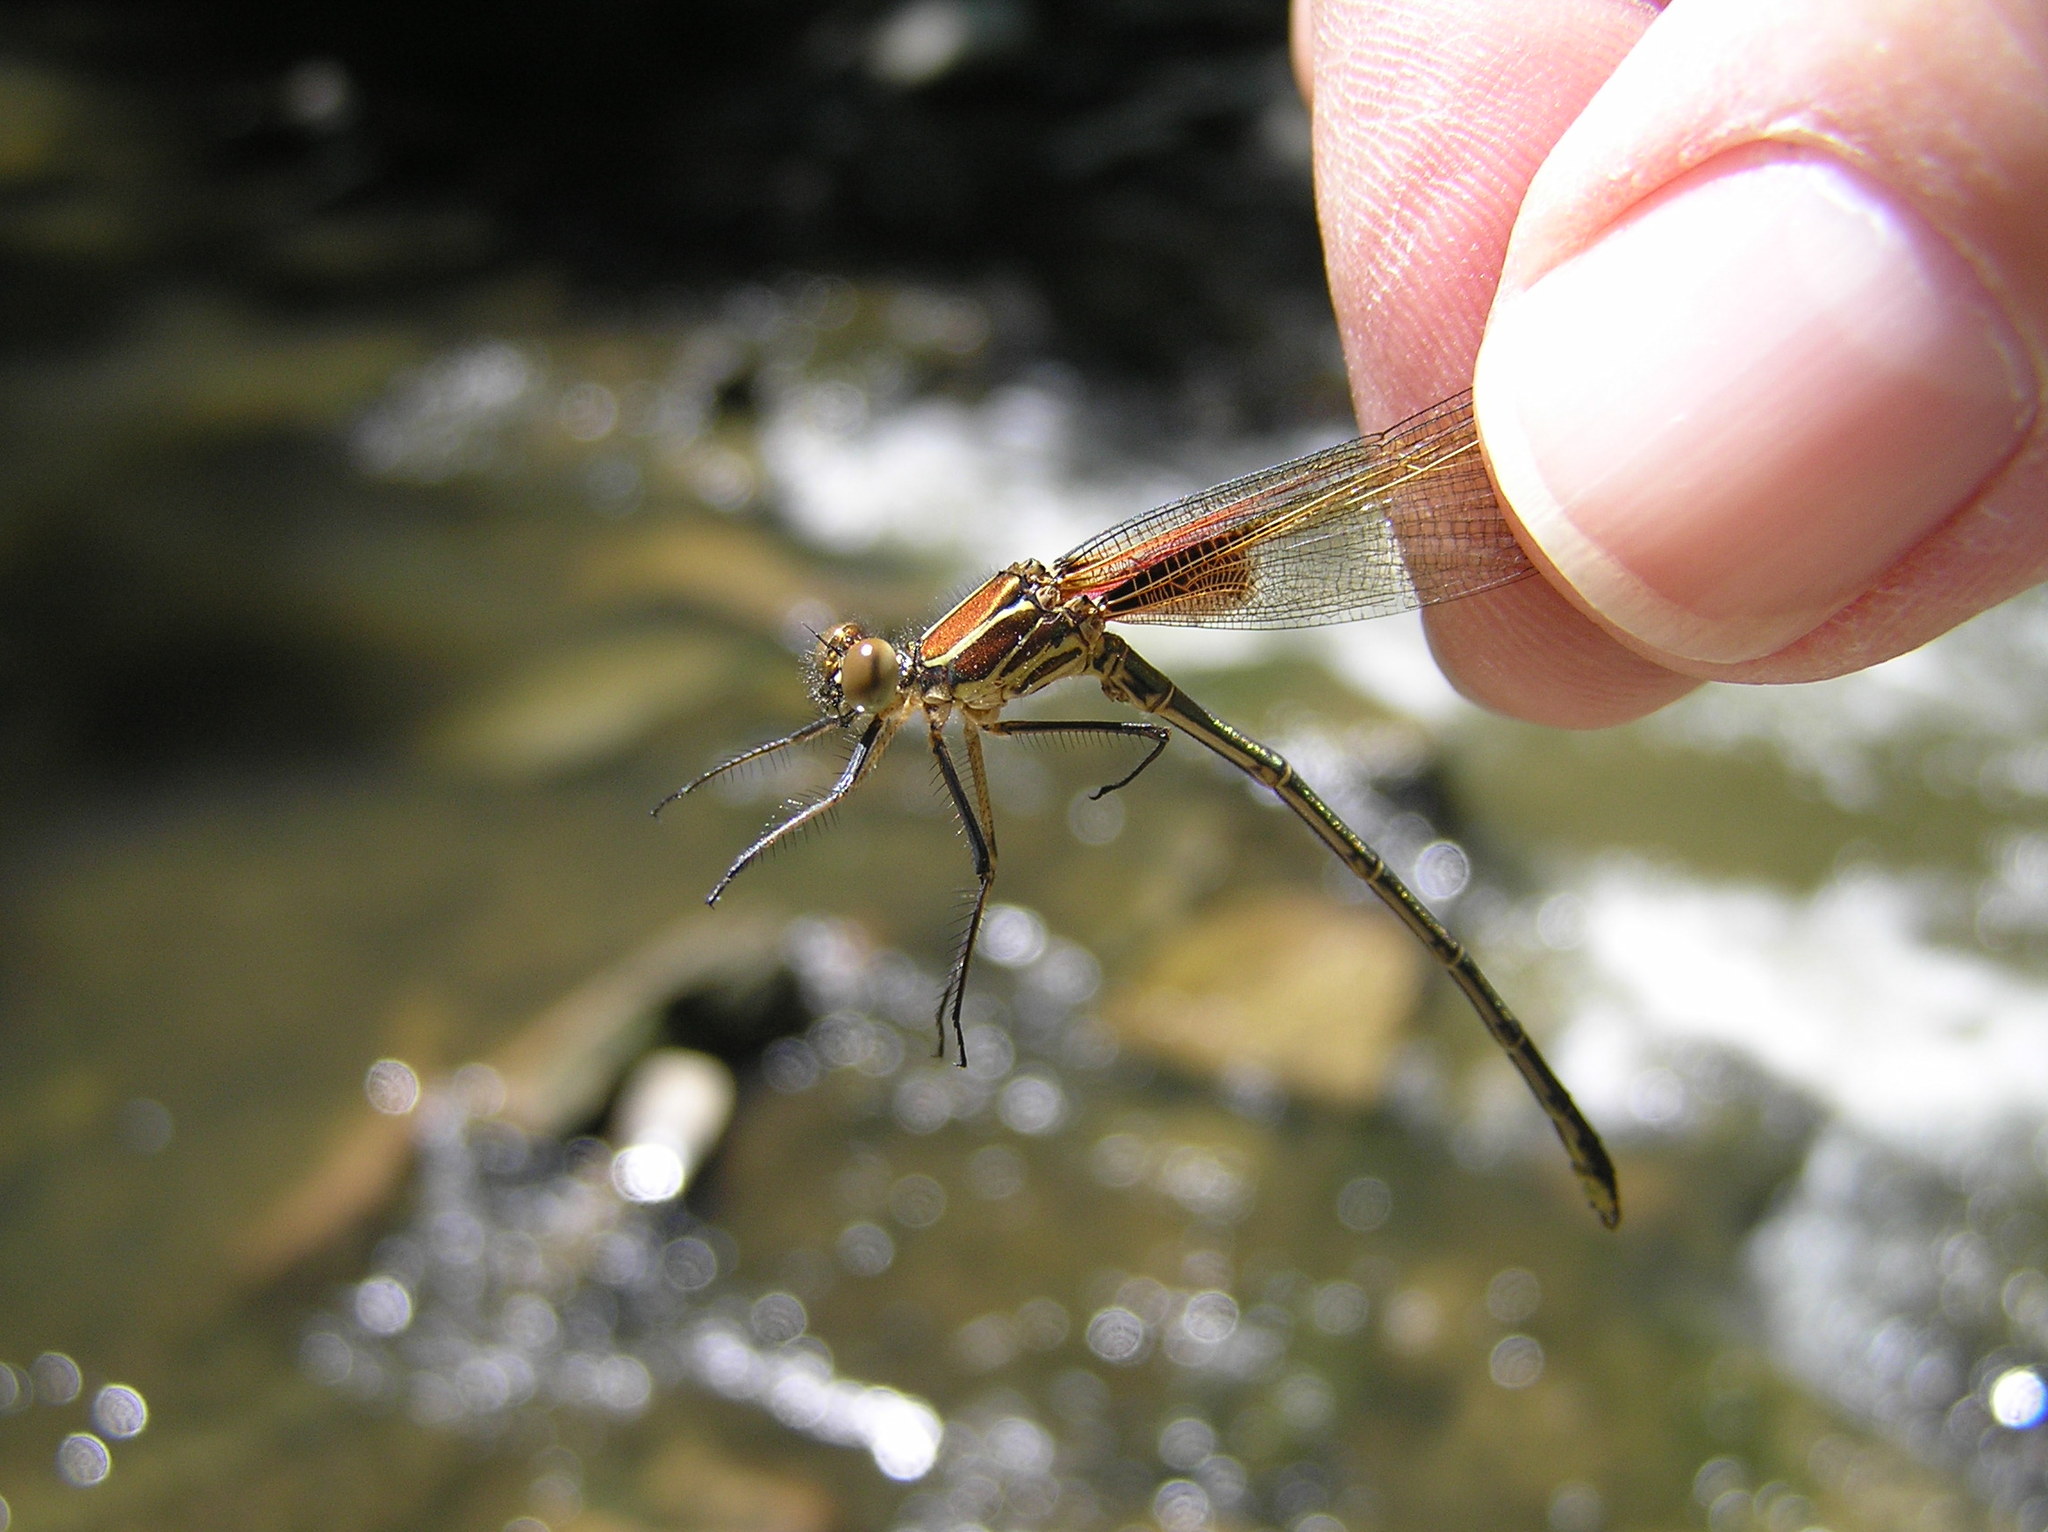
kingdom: Animalia
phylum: Arthropoda
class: Insecta
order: Odonata
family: Calopterygidae
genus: Hetaerina
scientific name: Hetaerina americana
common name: American rubyspot
